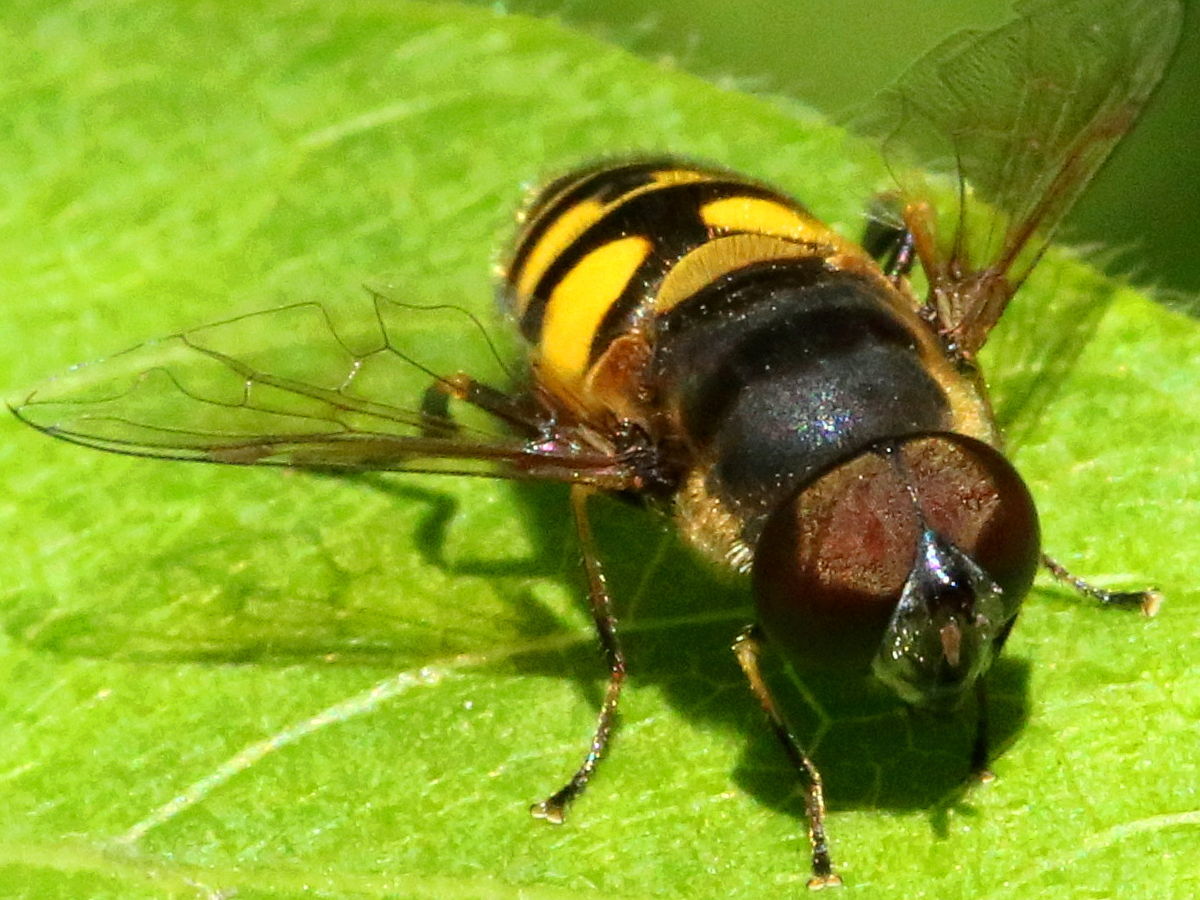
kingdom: Animalia
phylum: Arthropoda
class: Insecta
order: Diptera
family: Syrphidae
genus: Eristalis
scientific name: Eristalis transversa
